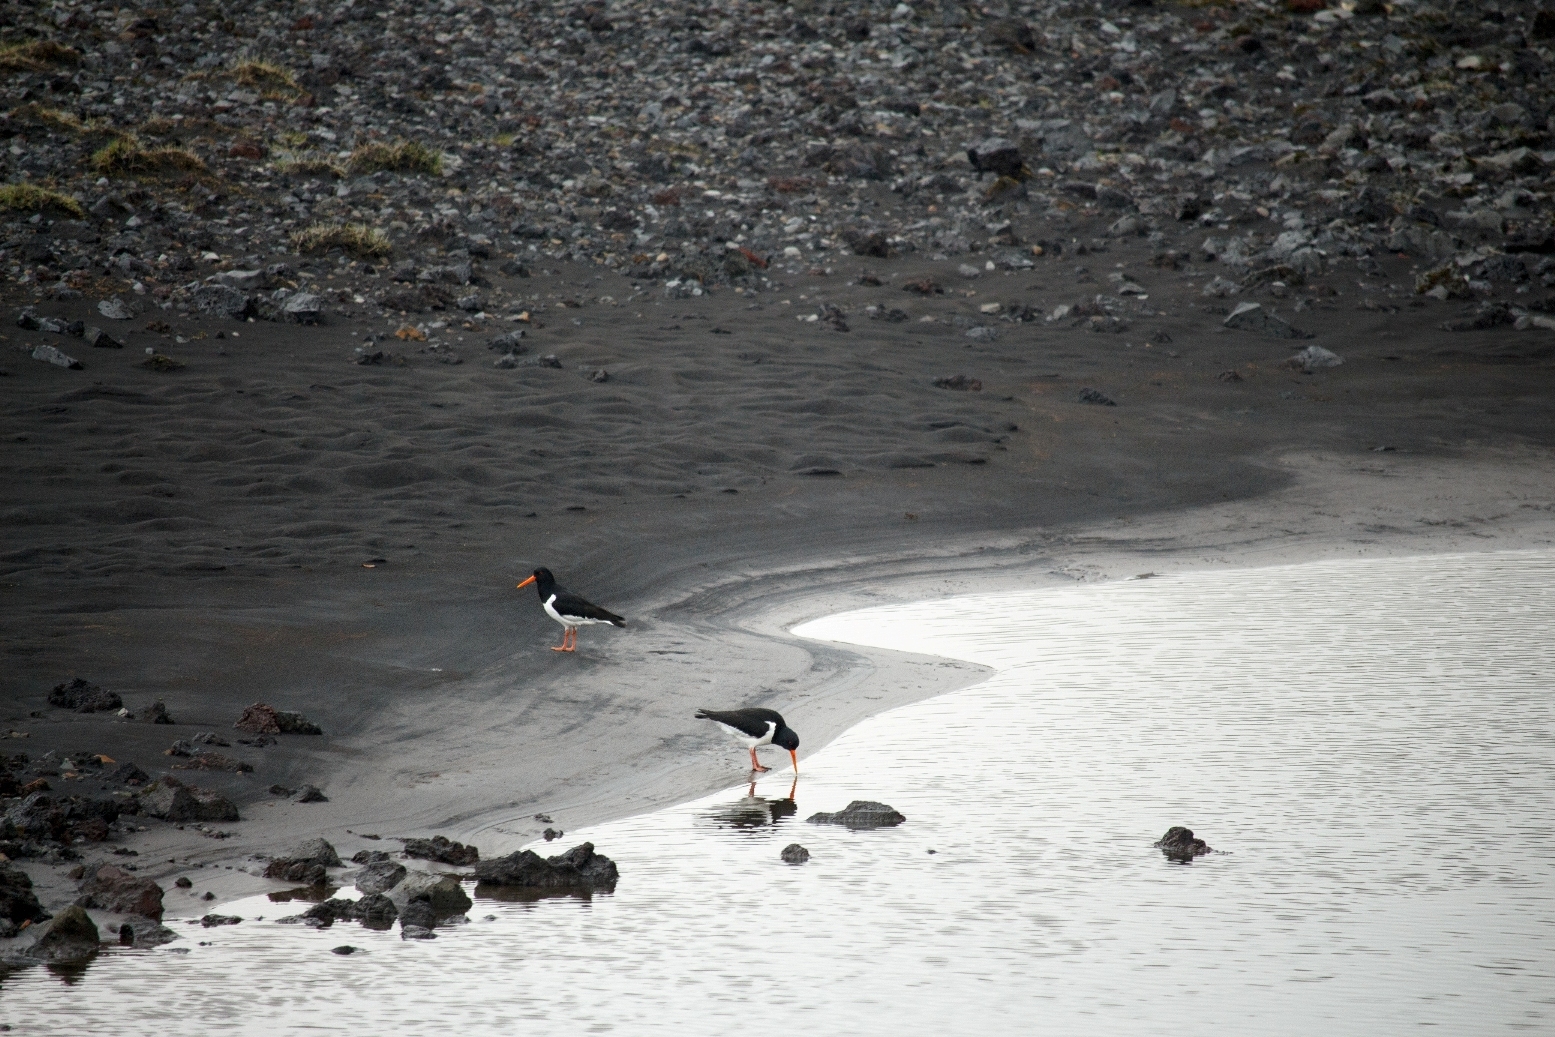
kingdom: Animalia
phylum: Chordata
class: Aves
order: Charadriiformes
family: Haematopodidae
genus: Haematopus
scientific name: Haematopus ostralegus
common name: Eurasian oystercatcher
